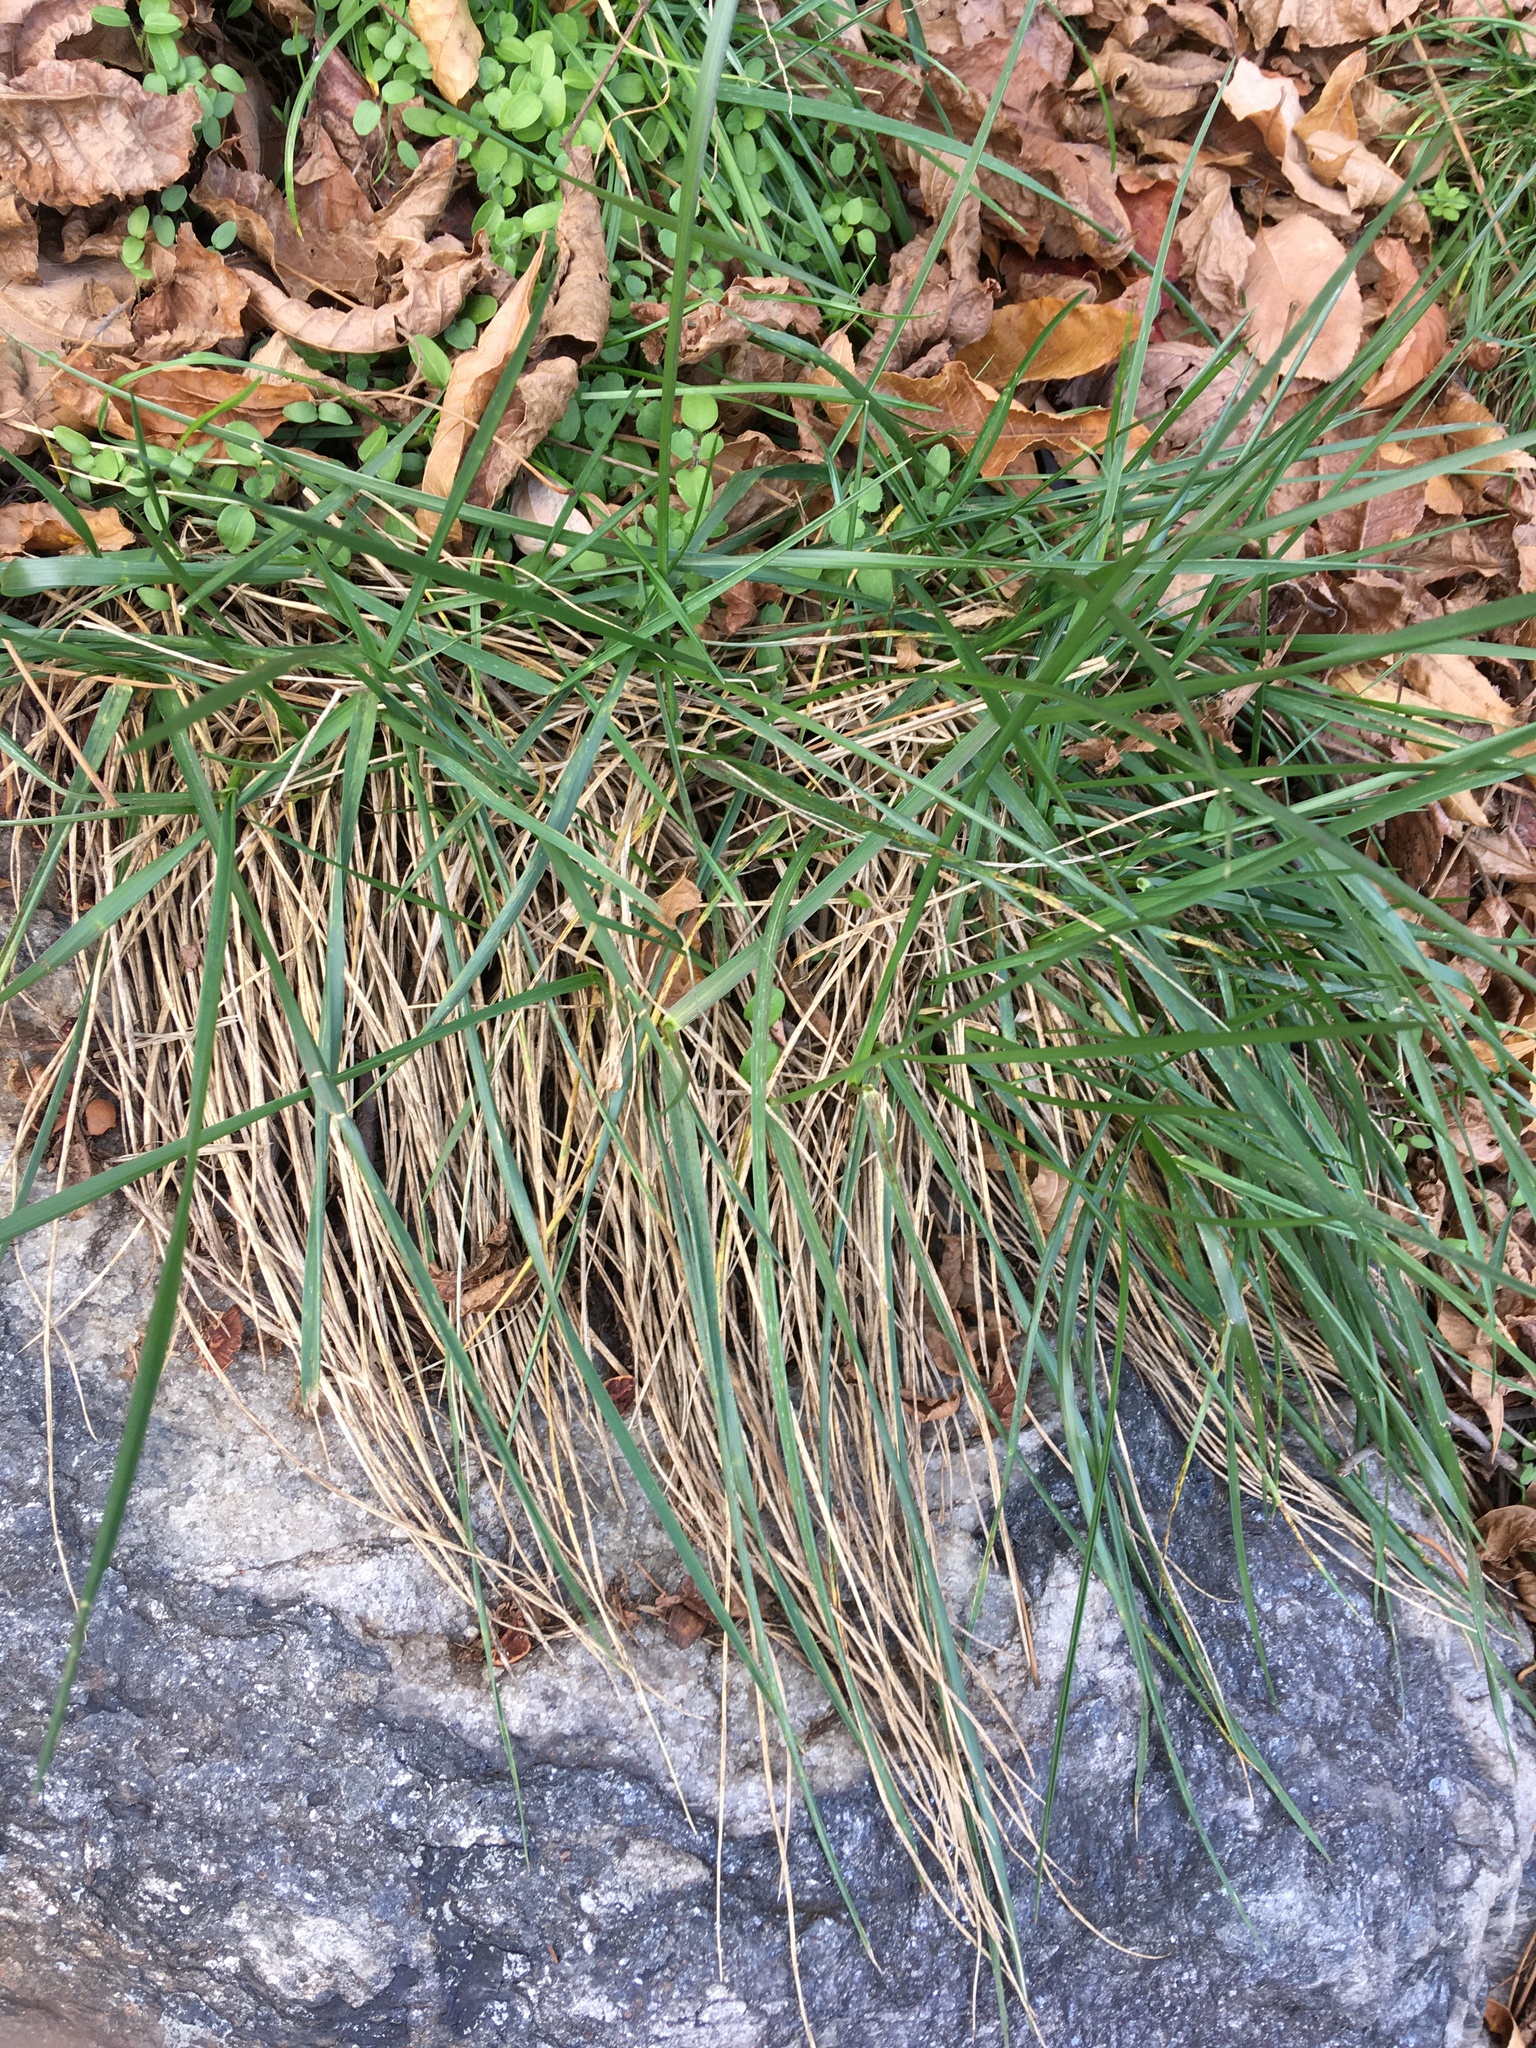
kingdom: Plantae
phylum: Tracheophyta
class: Liliopsida
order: Poales
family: Poaceae
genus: Lolium
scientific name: Lolium arundinaceum
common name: Reed fescue
